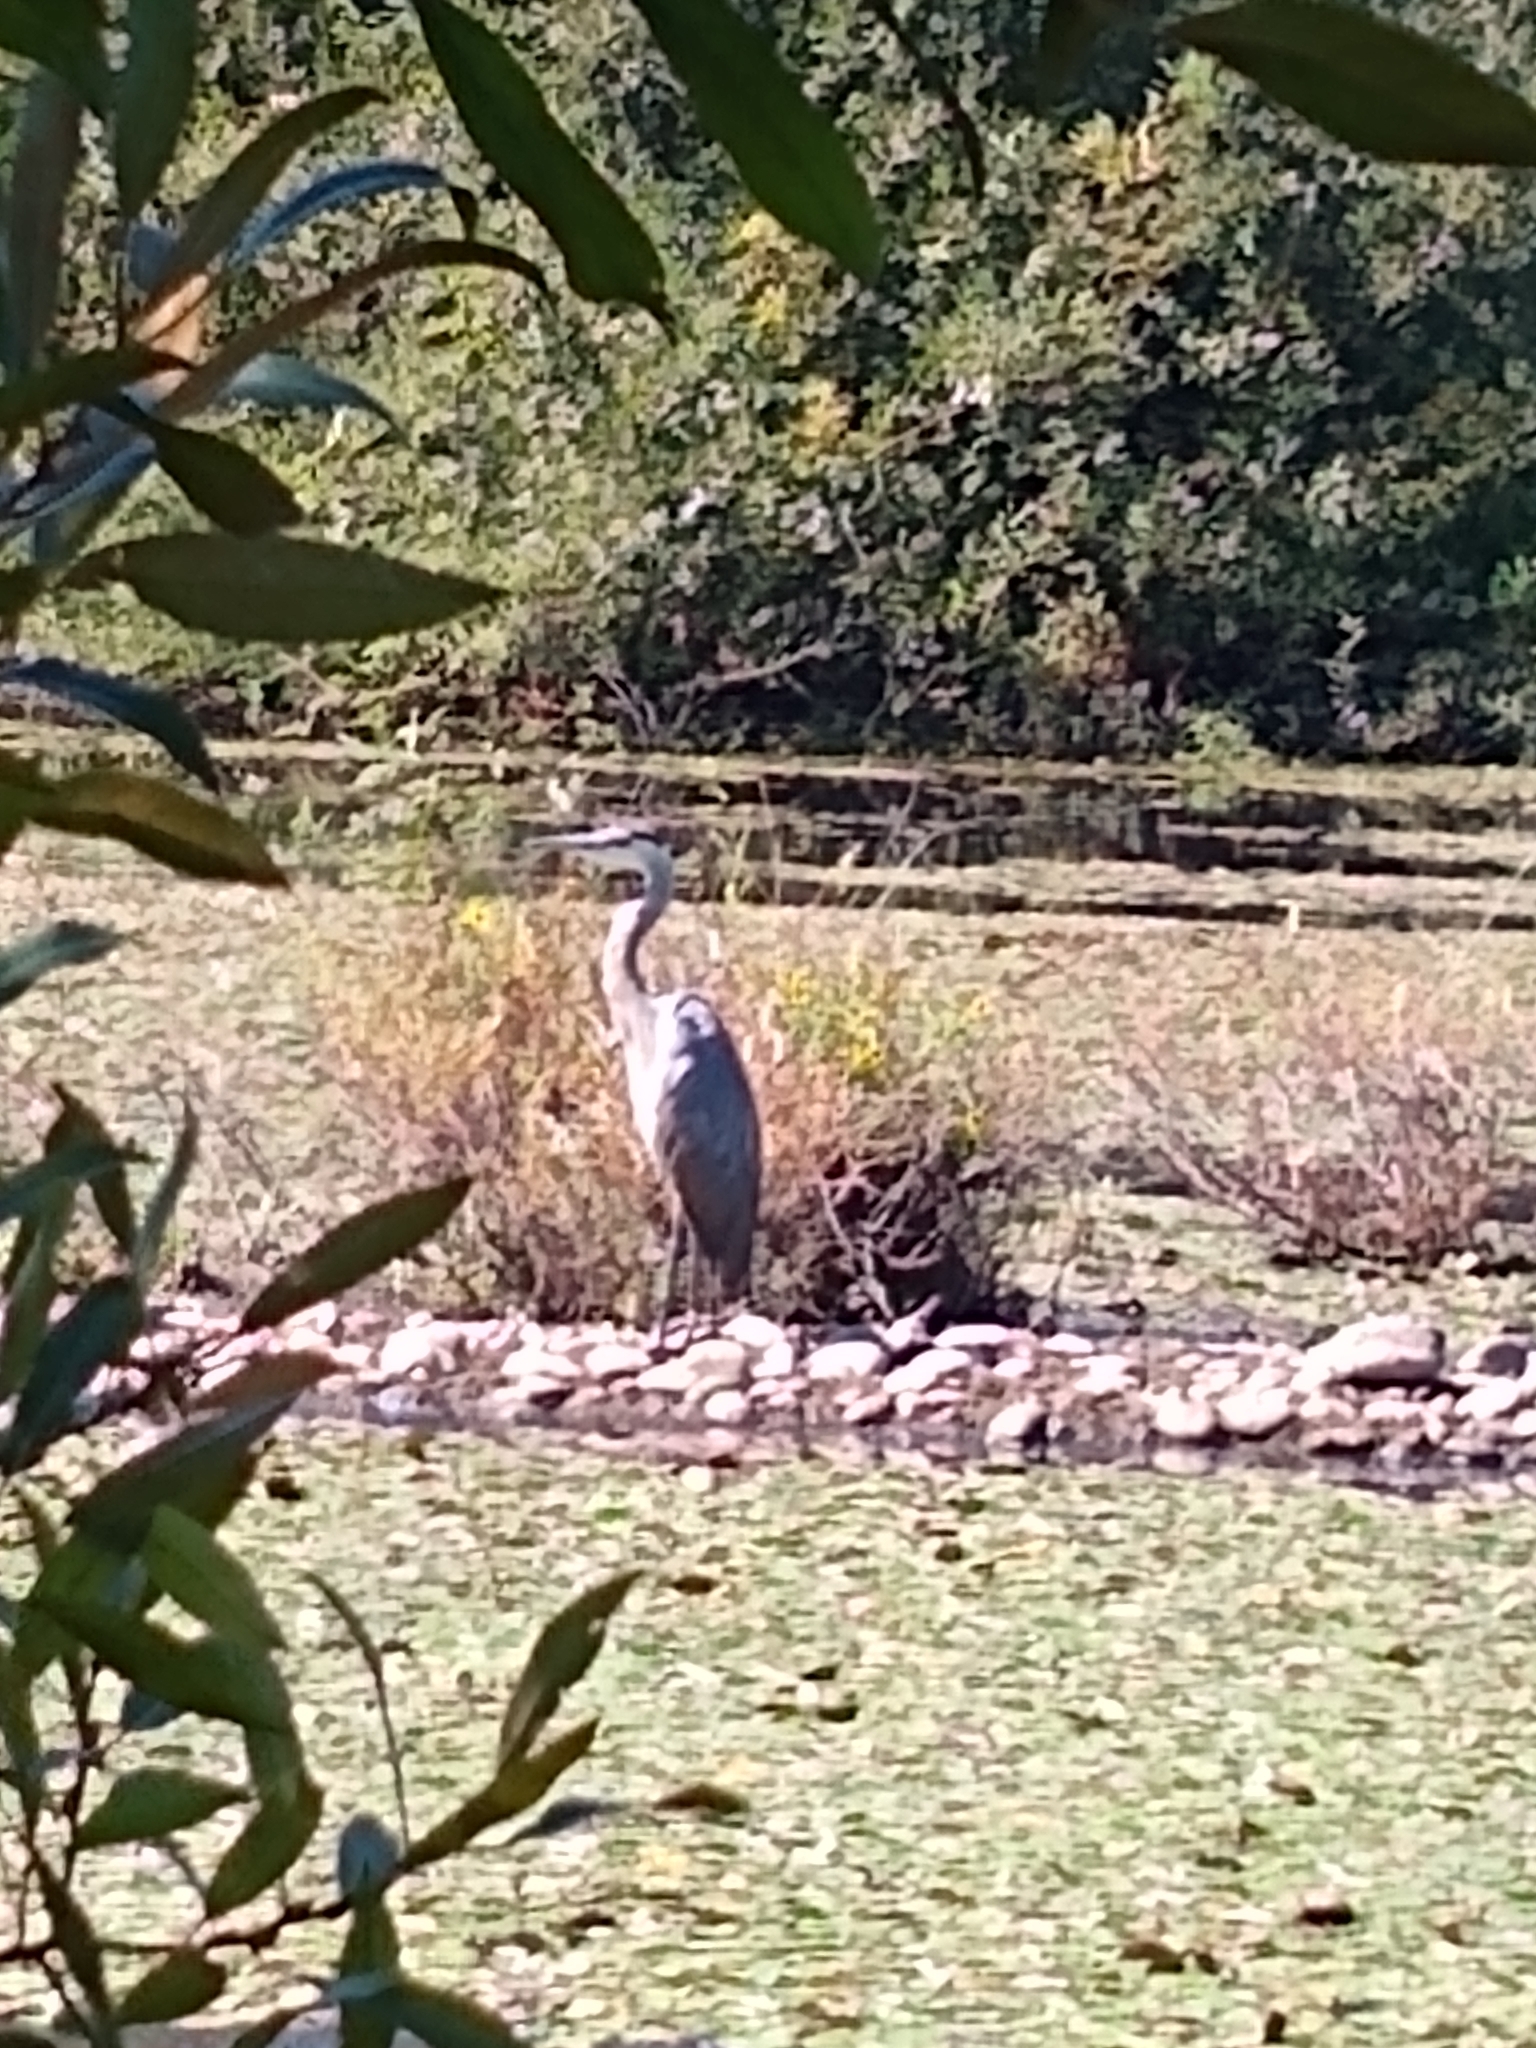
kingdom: Animalia
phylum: Chordata
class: Aves
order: Pelecaniformes
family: Ardeidae
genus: Ardea
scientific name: Ardea herodias
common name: Great blue heron
